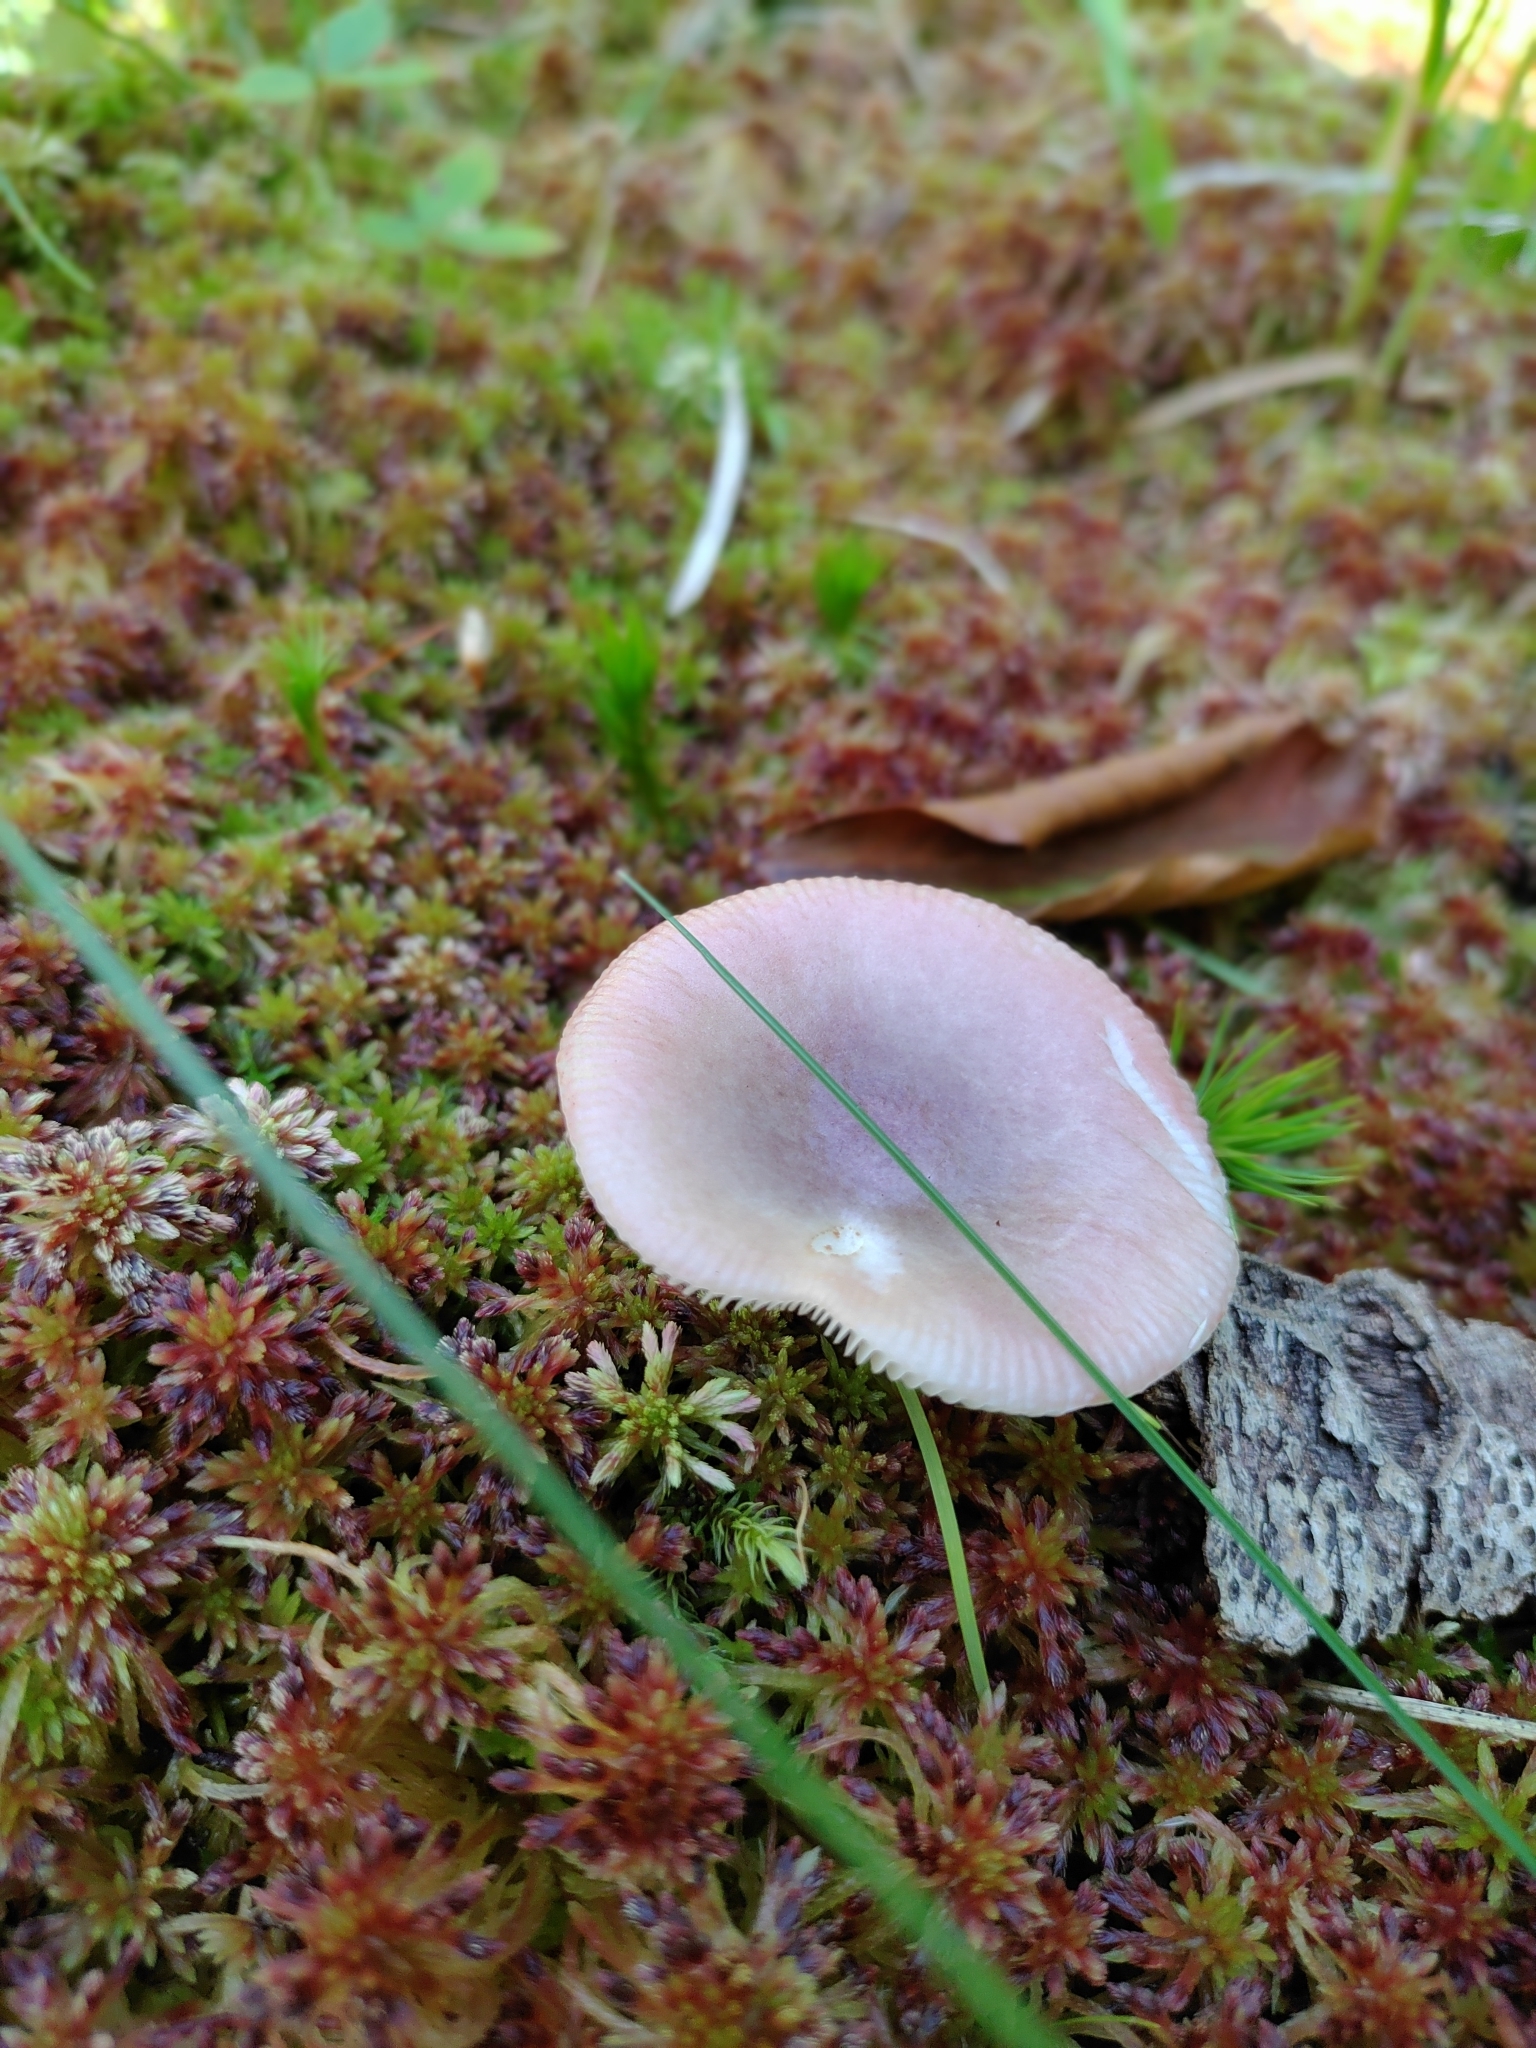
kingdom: Fungi
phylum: Basidiomycota
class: Agaricomycetes
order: Russulales
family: Russulaceae
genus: Russula
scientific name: Russula fragilis
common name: Fragile brittlegill
